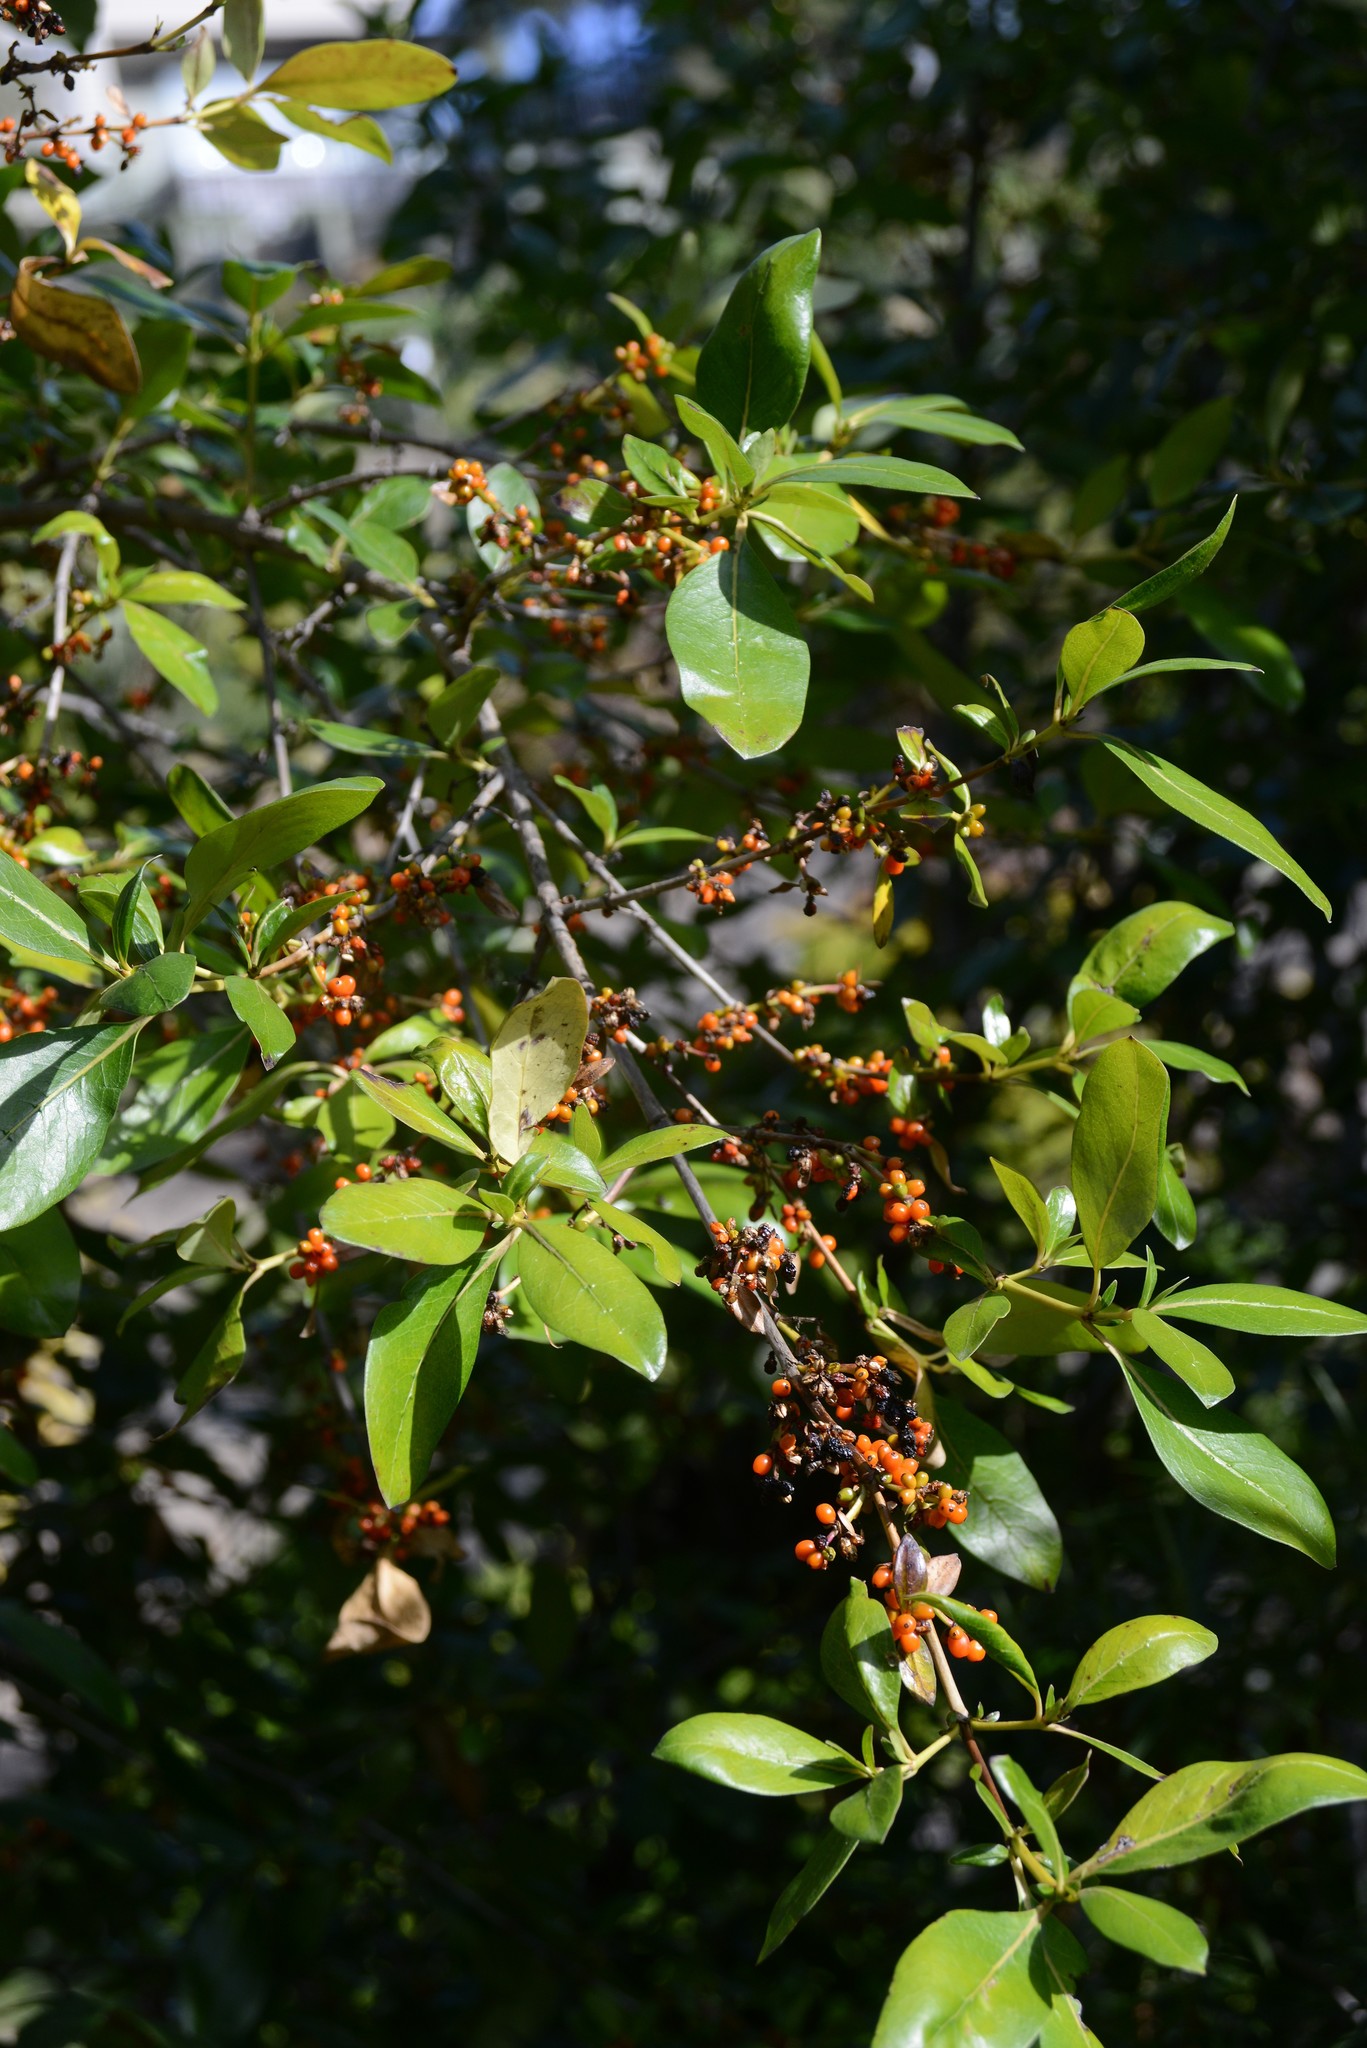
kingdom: Plantae
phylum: Tracheophyta
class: Magnoliopsida
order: Gentianales
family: Rubiaceae
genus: Coprosma
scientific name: Coprosma robusta
